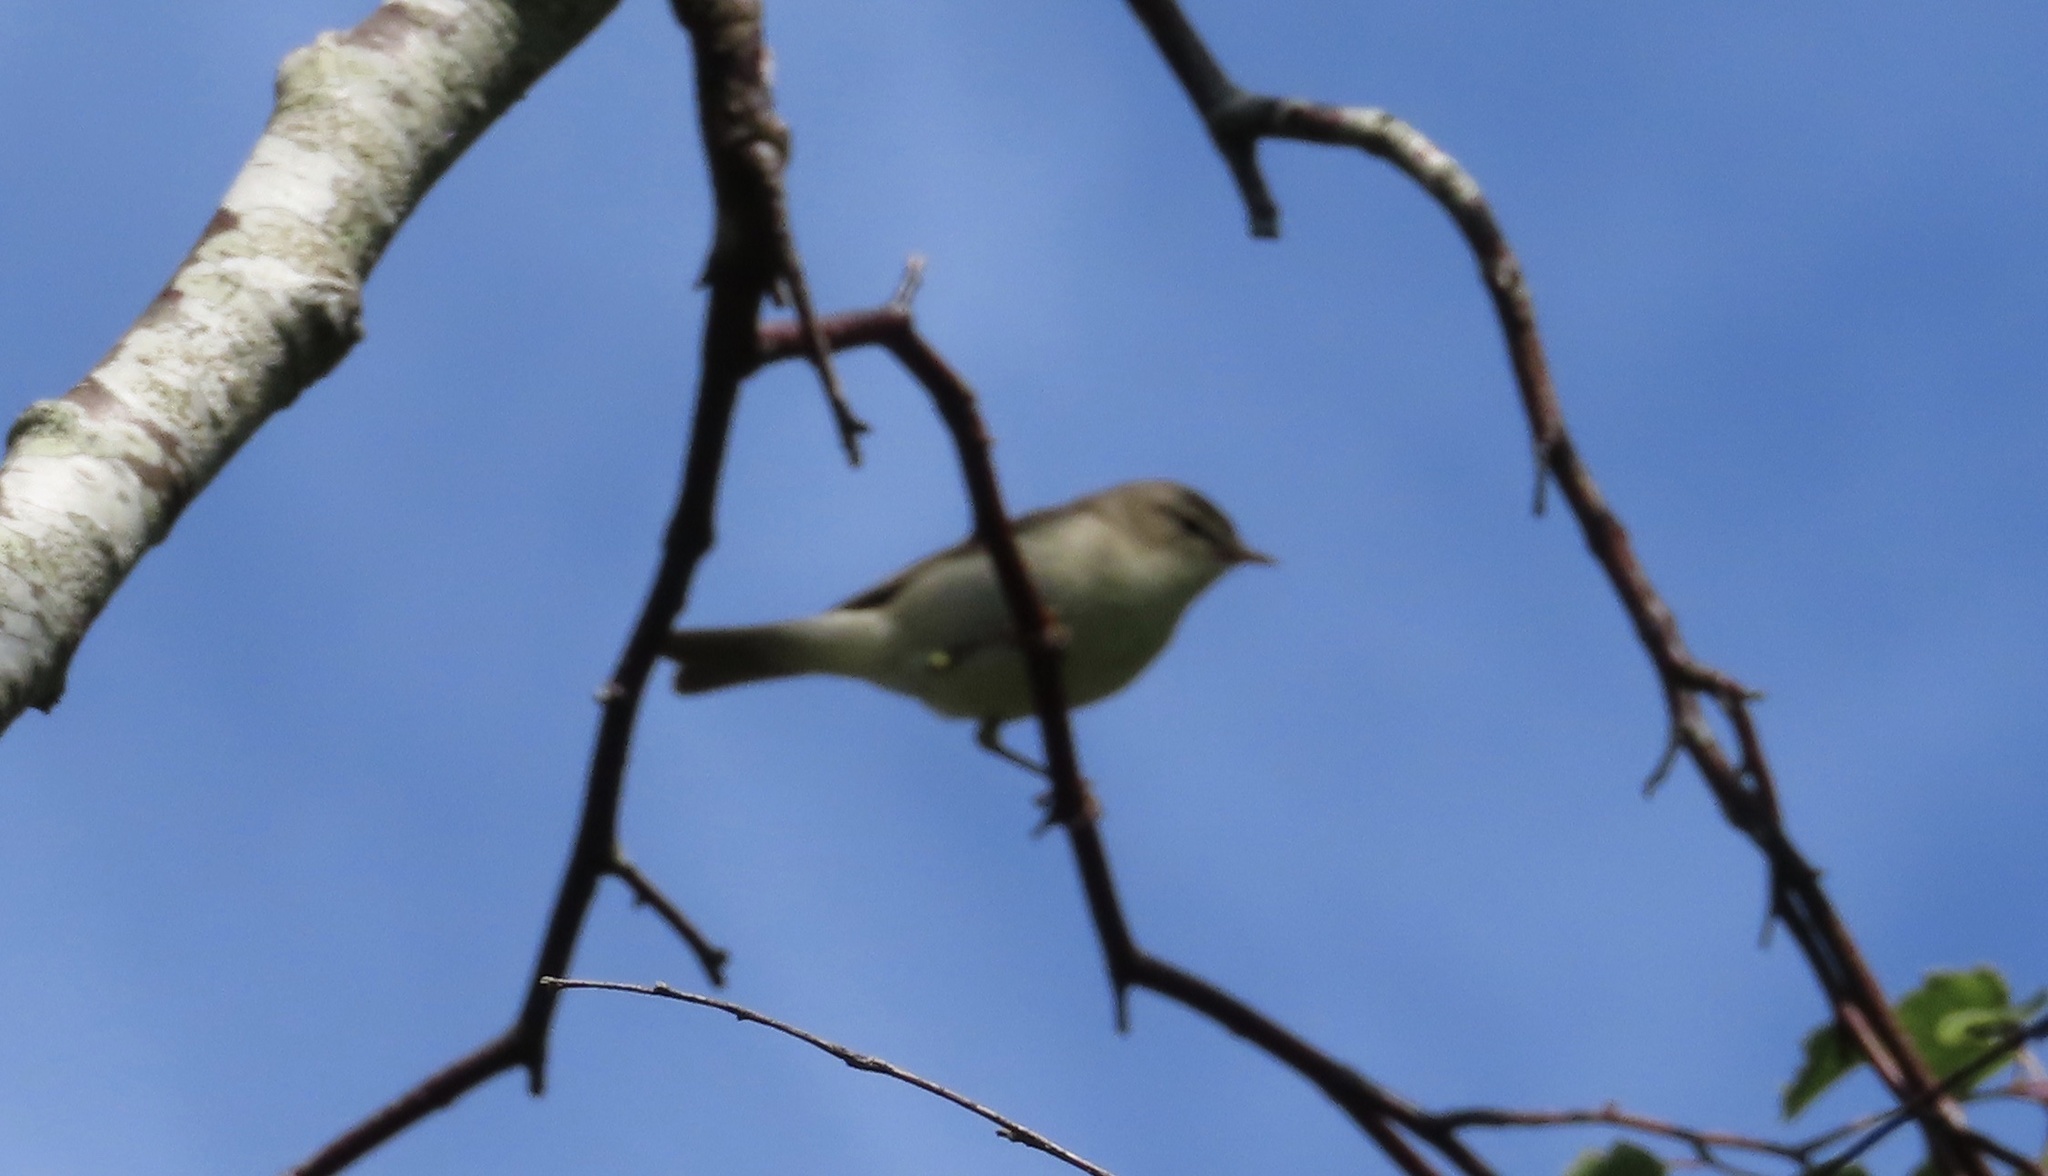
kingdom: Animalia
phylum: Chordata
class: Aves
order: Passeriformes
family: Phylloscopidae
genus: Phylloscopus
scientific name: Phylloscopus trochilus
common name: Willow warbler
